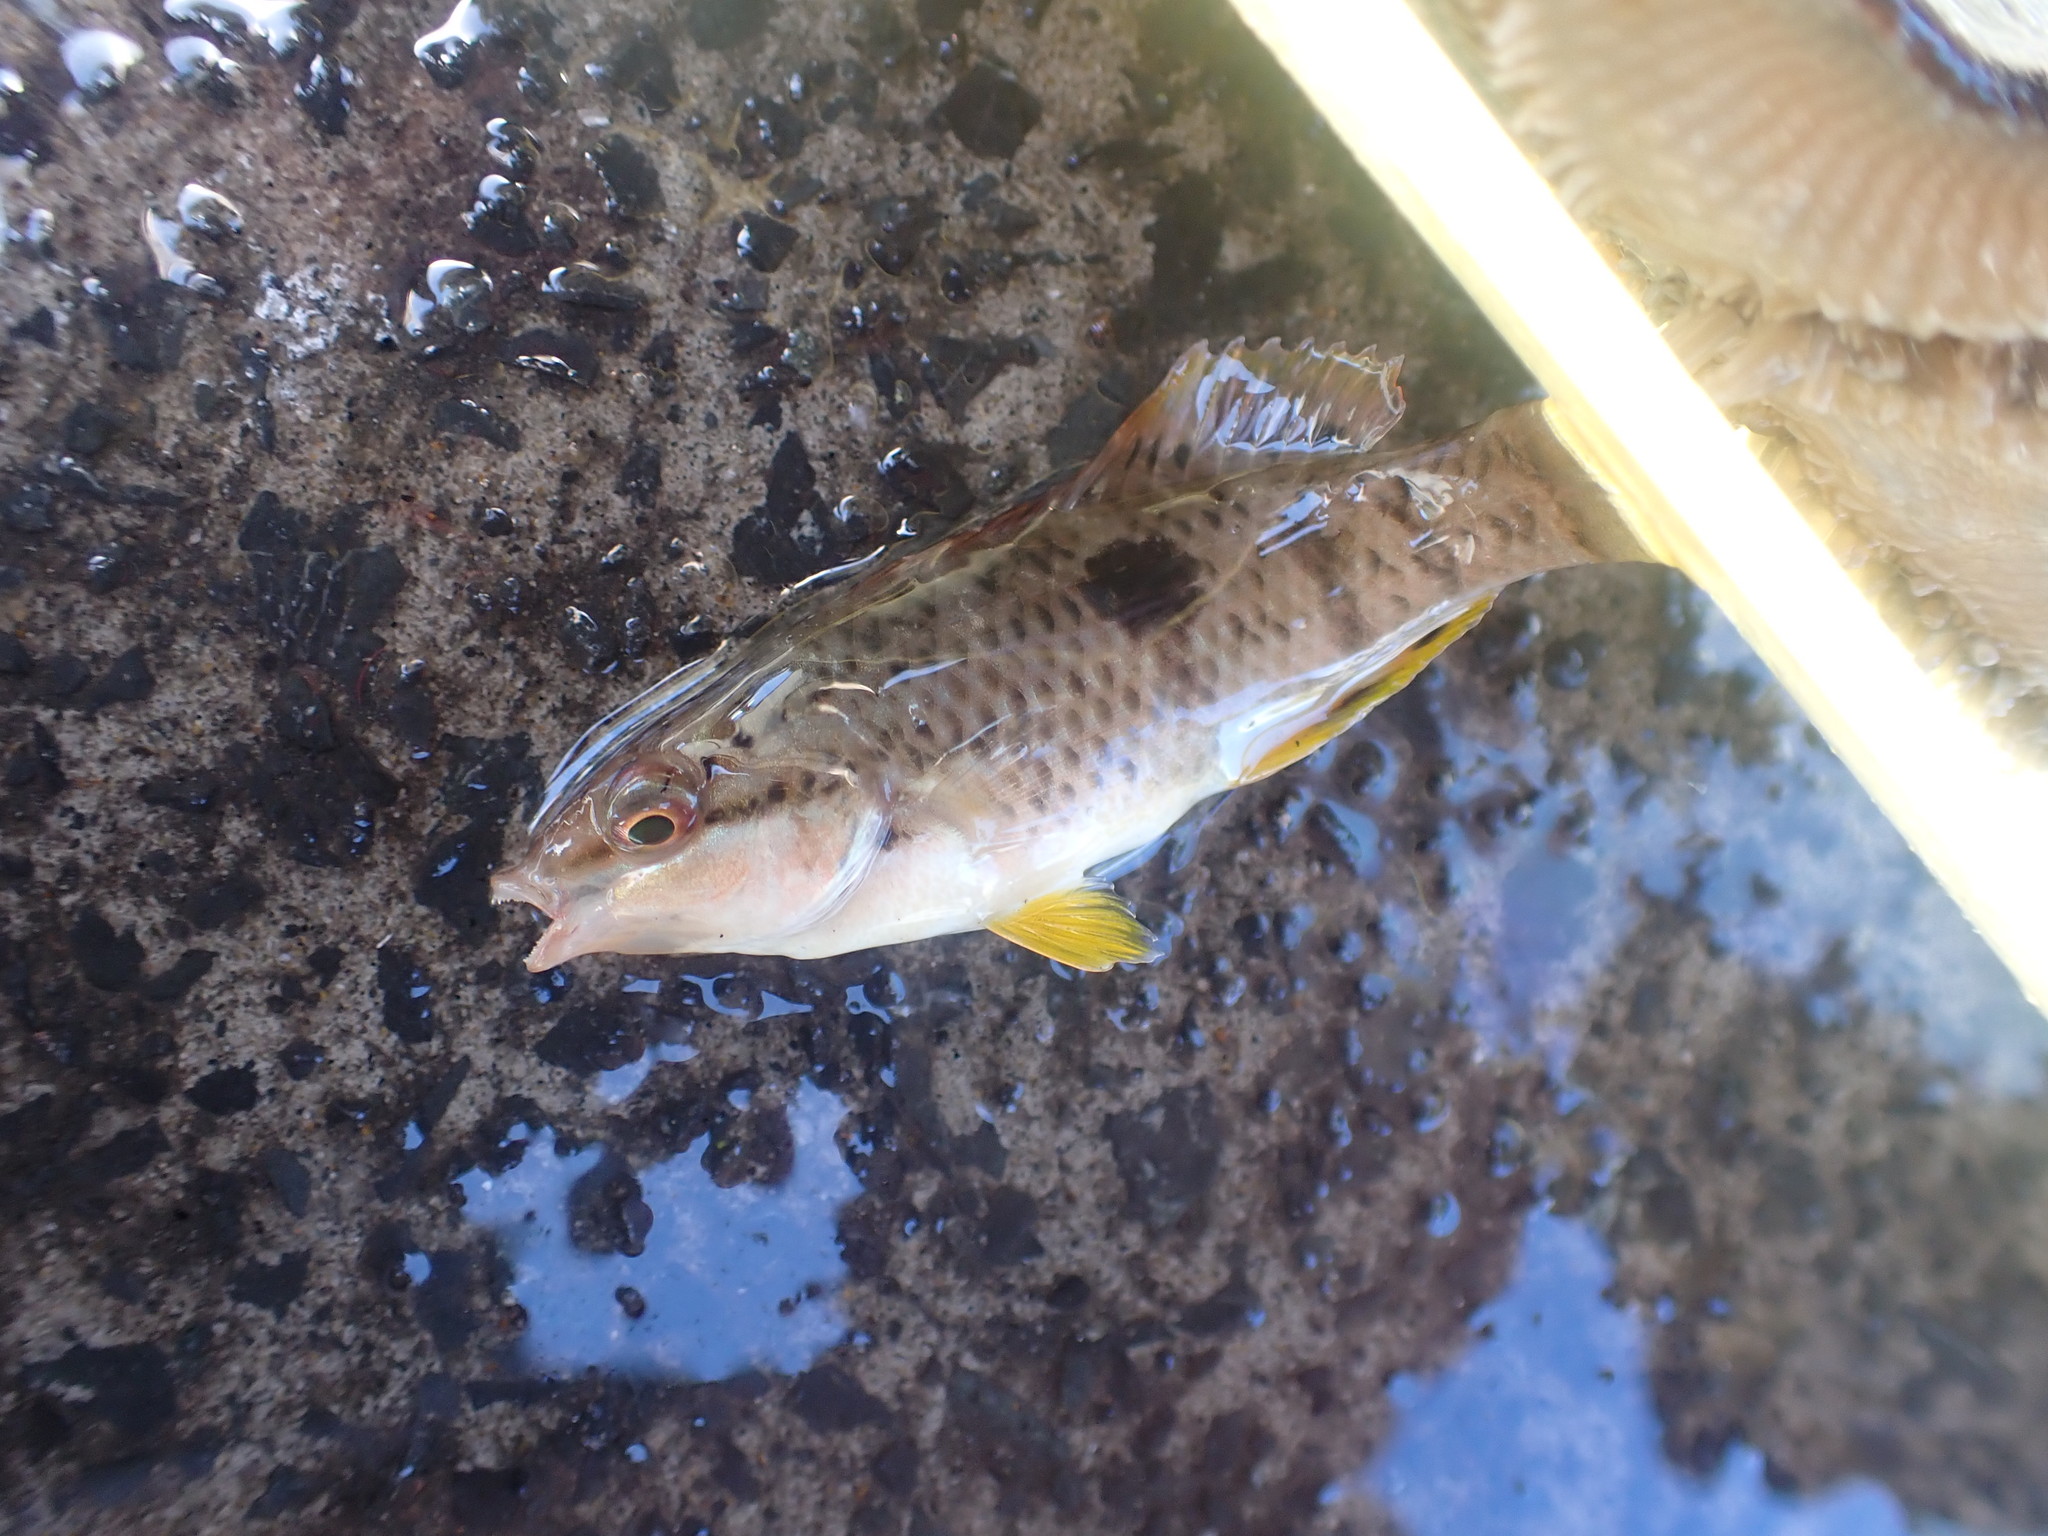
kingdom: Animalia
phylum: Chordata
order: Perciformes
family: Labridae
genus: Notolabrus
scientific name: Notolabrus celidotus
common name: Spotty
